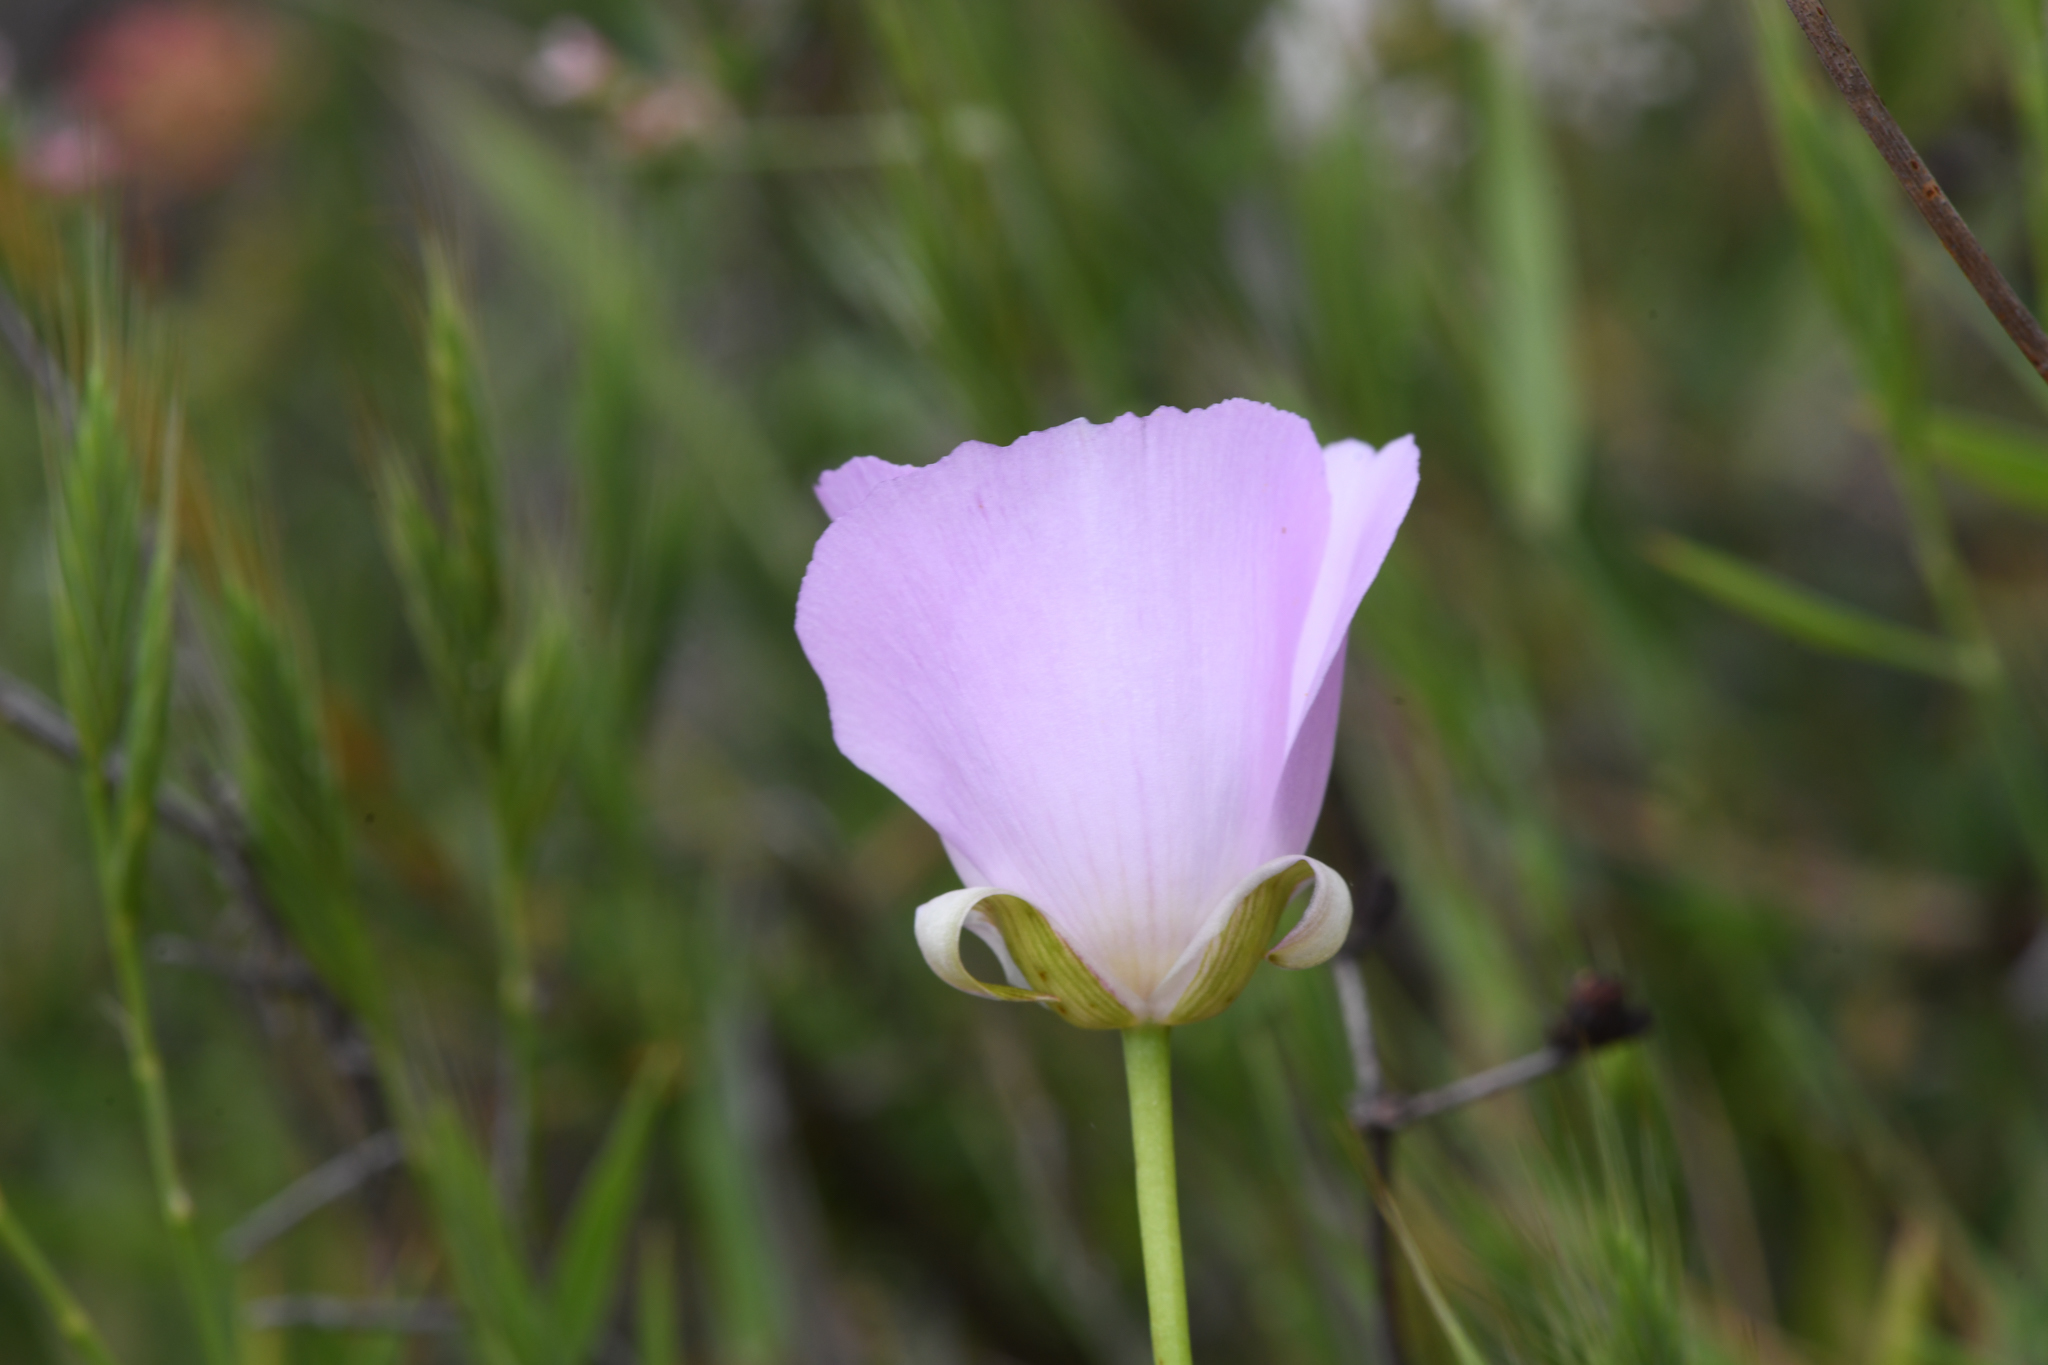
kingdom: Plantae
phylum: Tracheophyta
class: Liliopsida
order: Liliales
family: Liliaceae
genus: Calochortus
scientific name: Calochortus splendens
